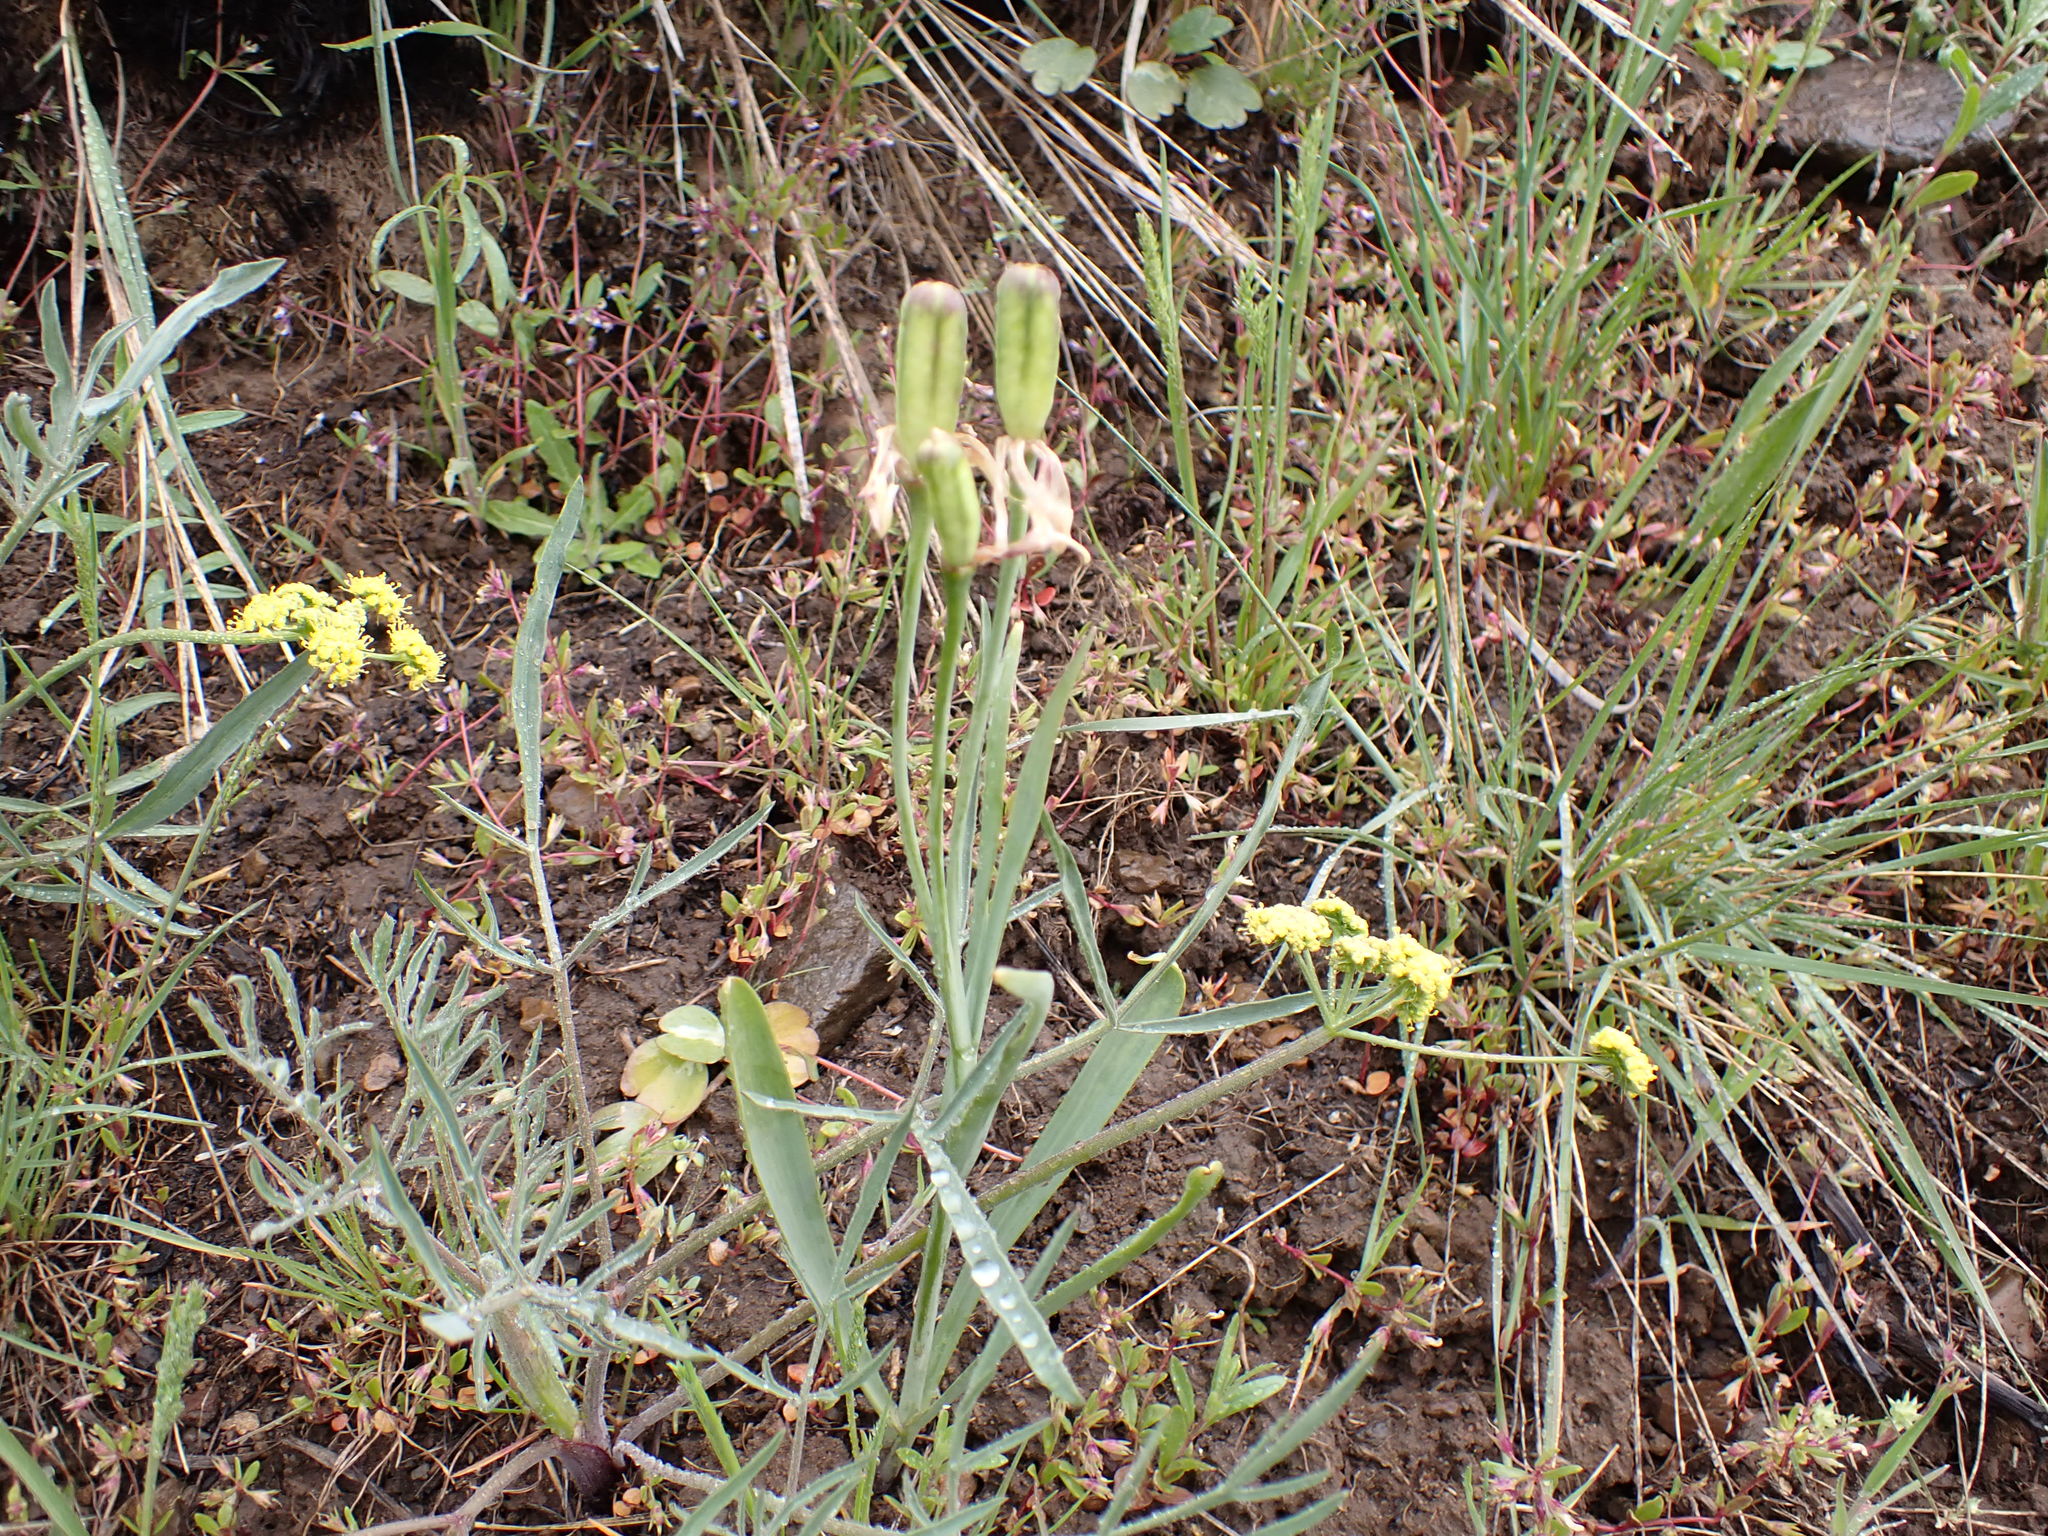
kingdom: Plantae
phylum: Tracheophyta
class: Liliopsida
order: Liliales
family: Liliaceae
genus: Fritillaria
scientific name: Fritillaria pudica
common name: Yellow fritillary
